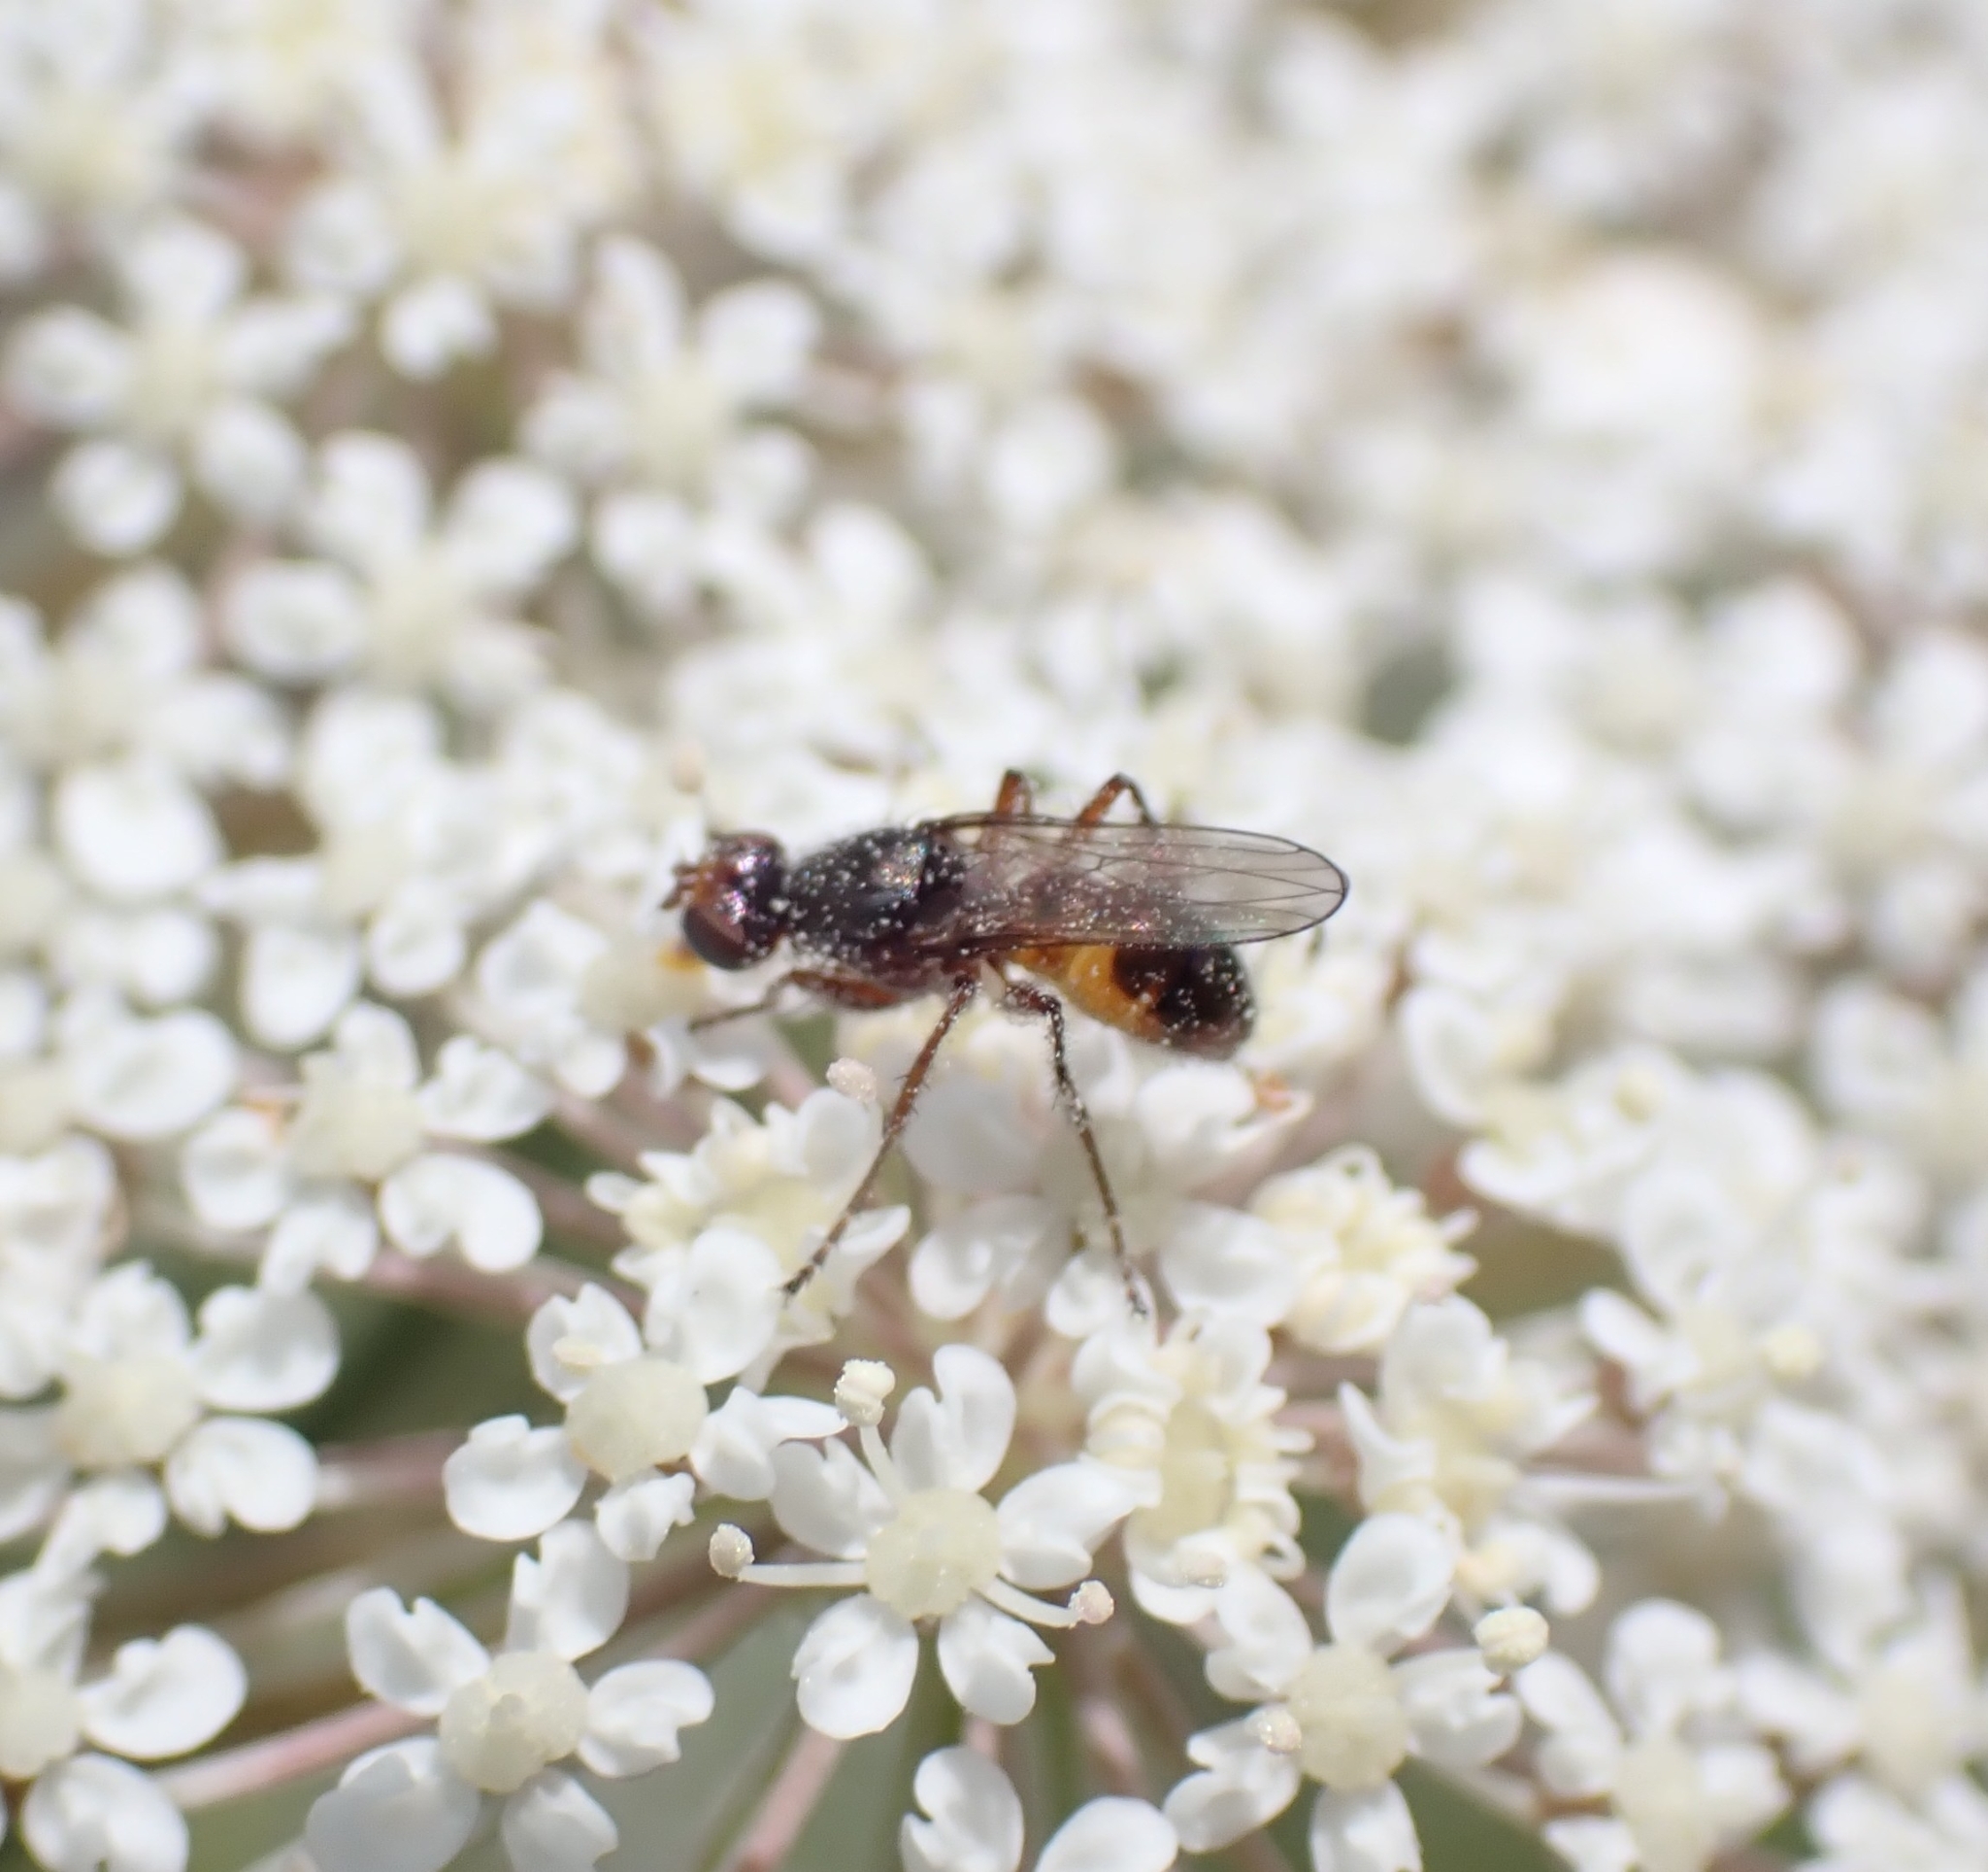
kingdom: Animalia
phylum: Arthropoda
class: Insecta
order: Diptera
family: Sepsidae
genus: Lasionemopoda
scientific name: Lasionemopoda hirsuta
